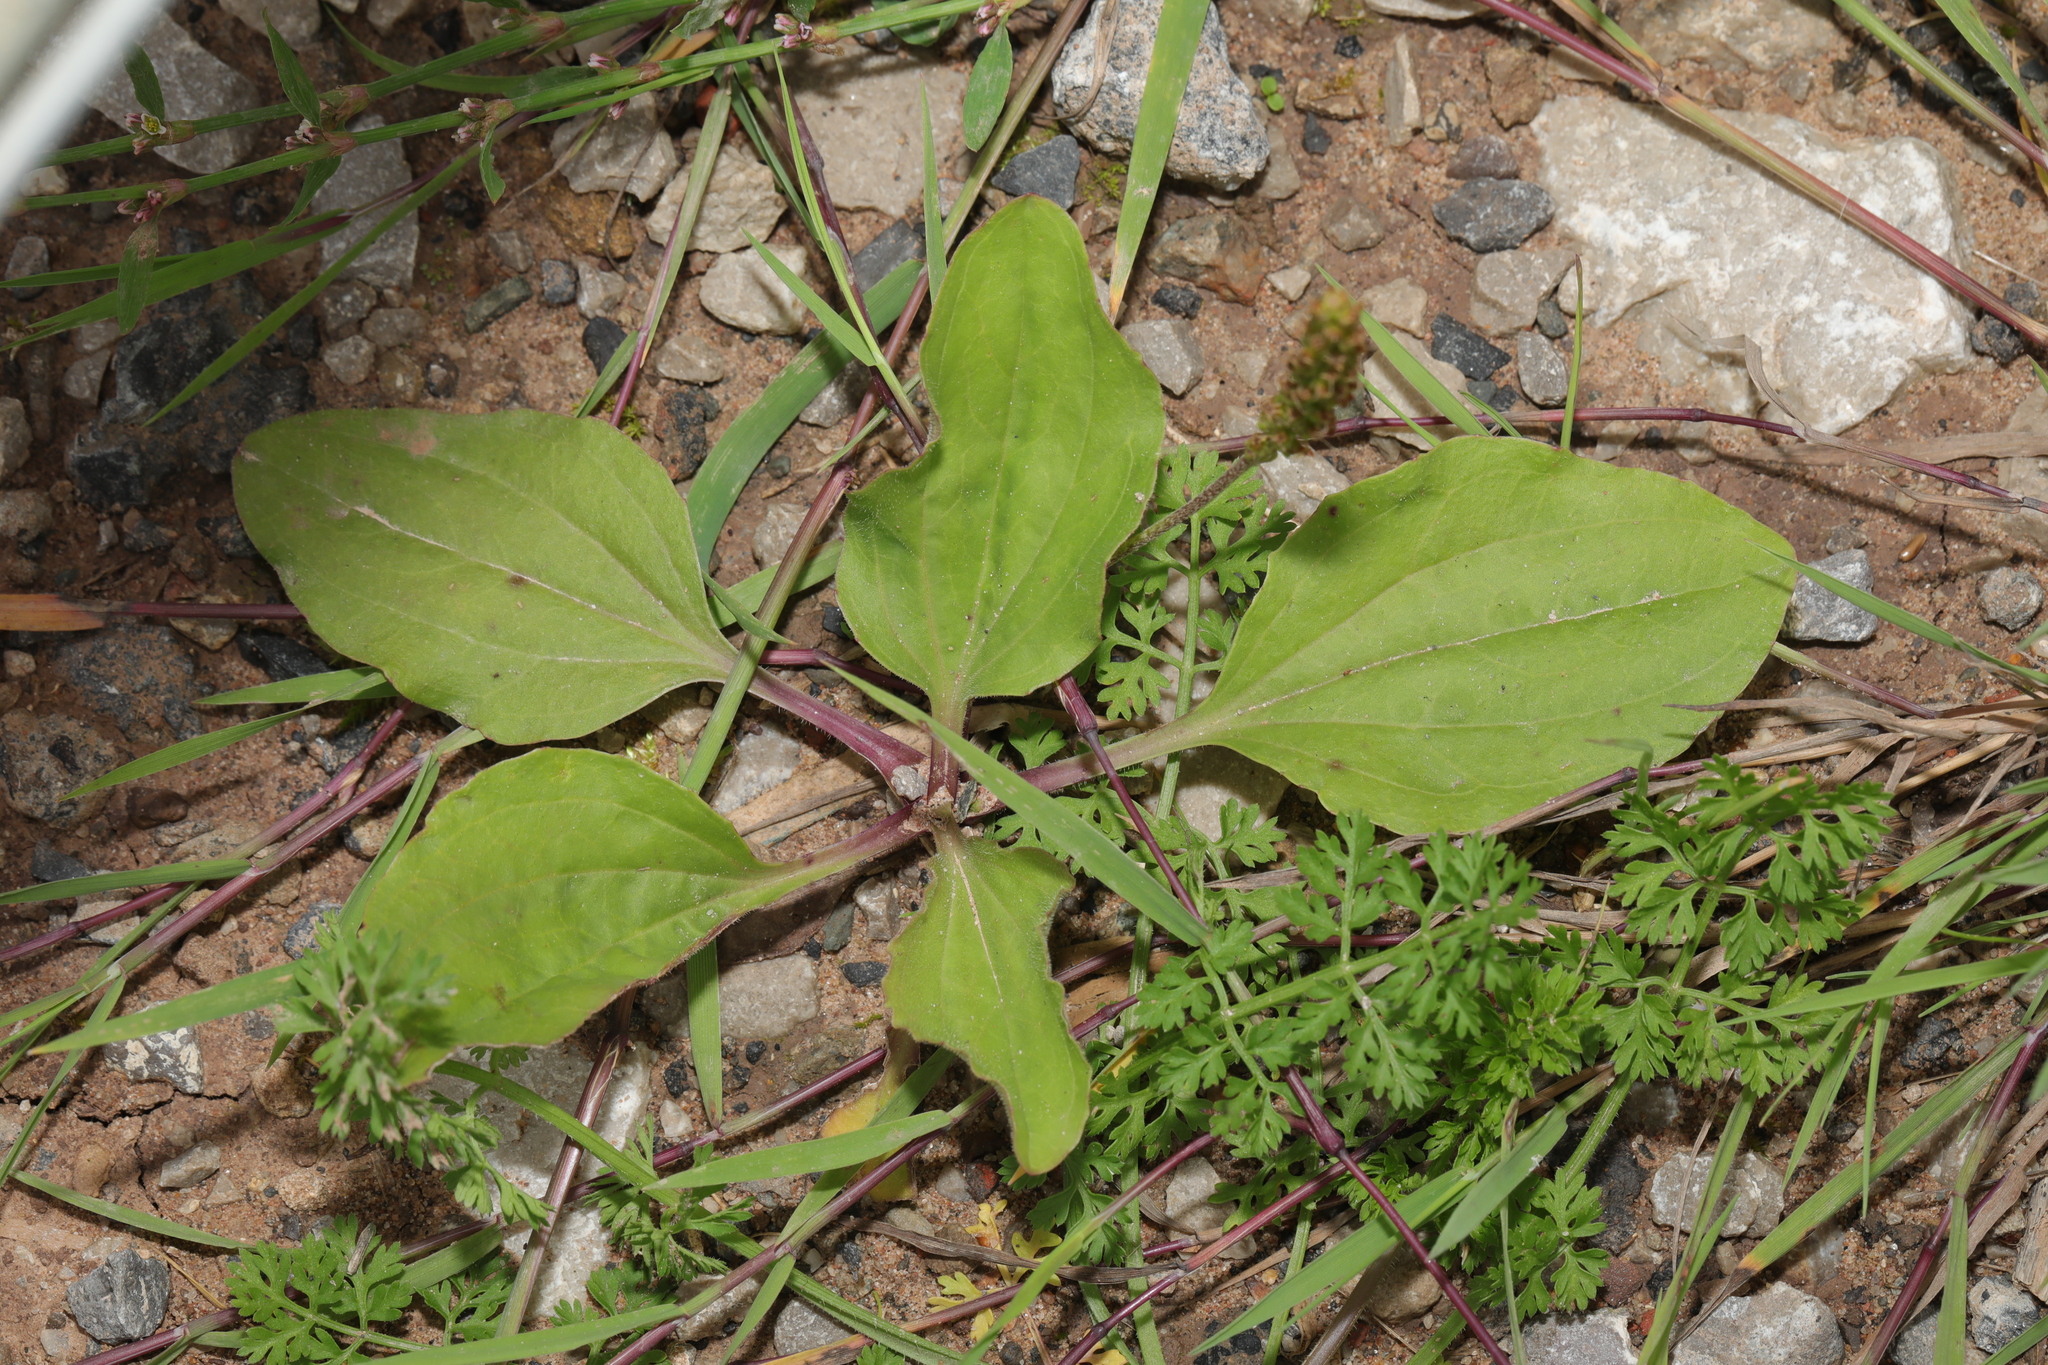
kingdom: Plantae
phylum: Tracheophyta
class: Magnoliopsida
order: Lamiales
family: Plantaginaceae
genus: Plantago
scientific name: Plantago major
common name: Common plantain
